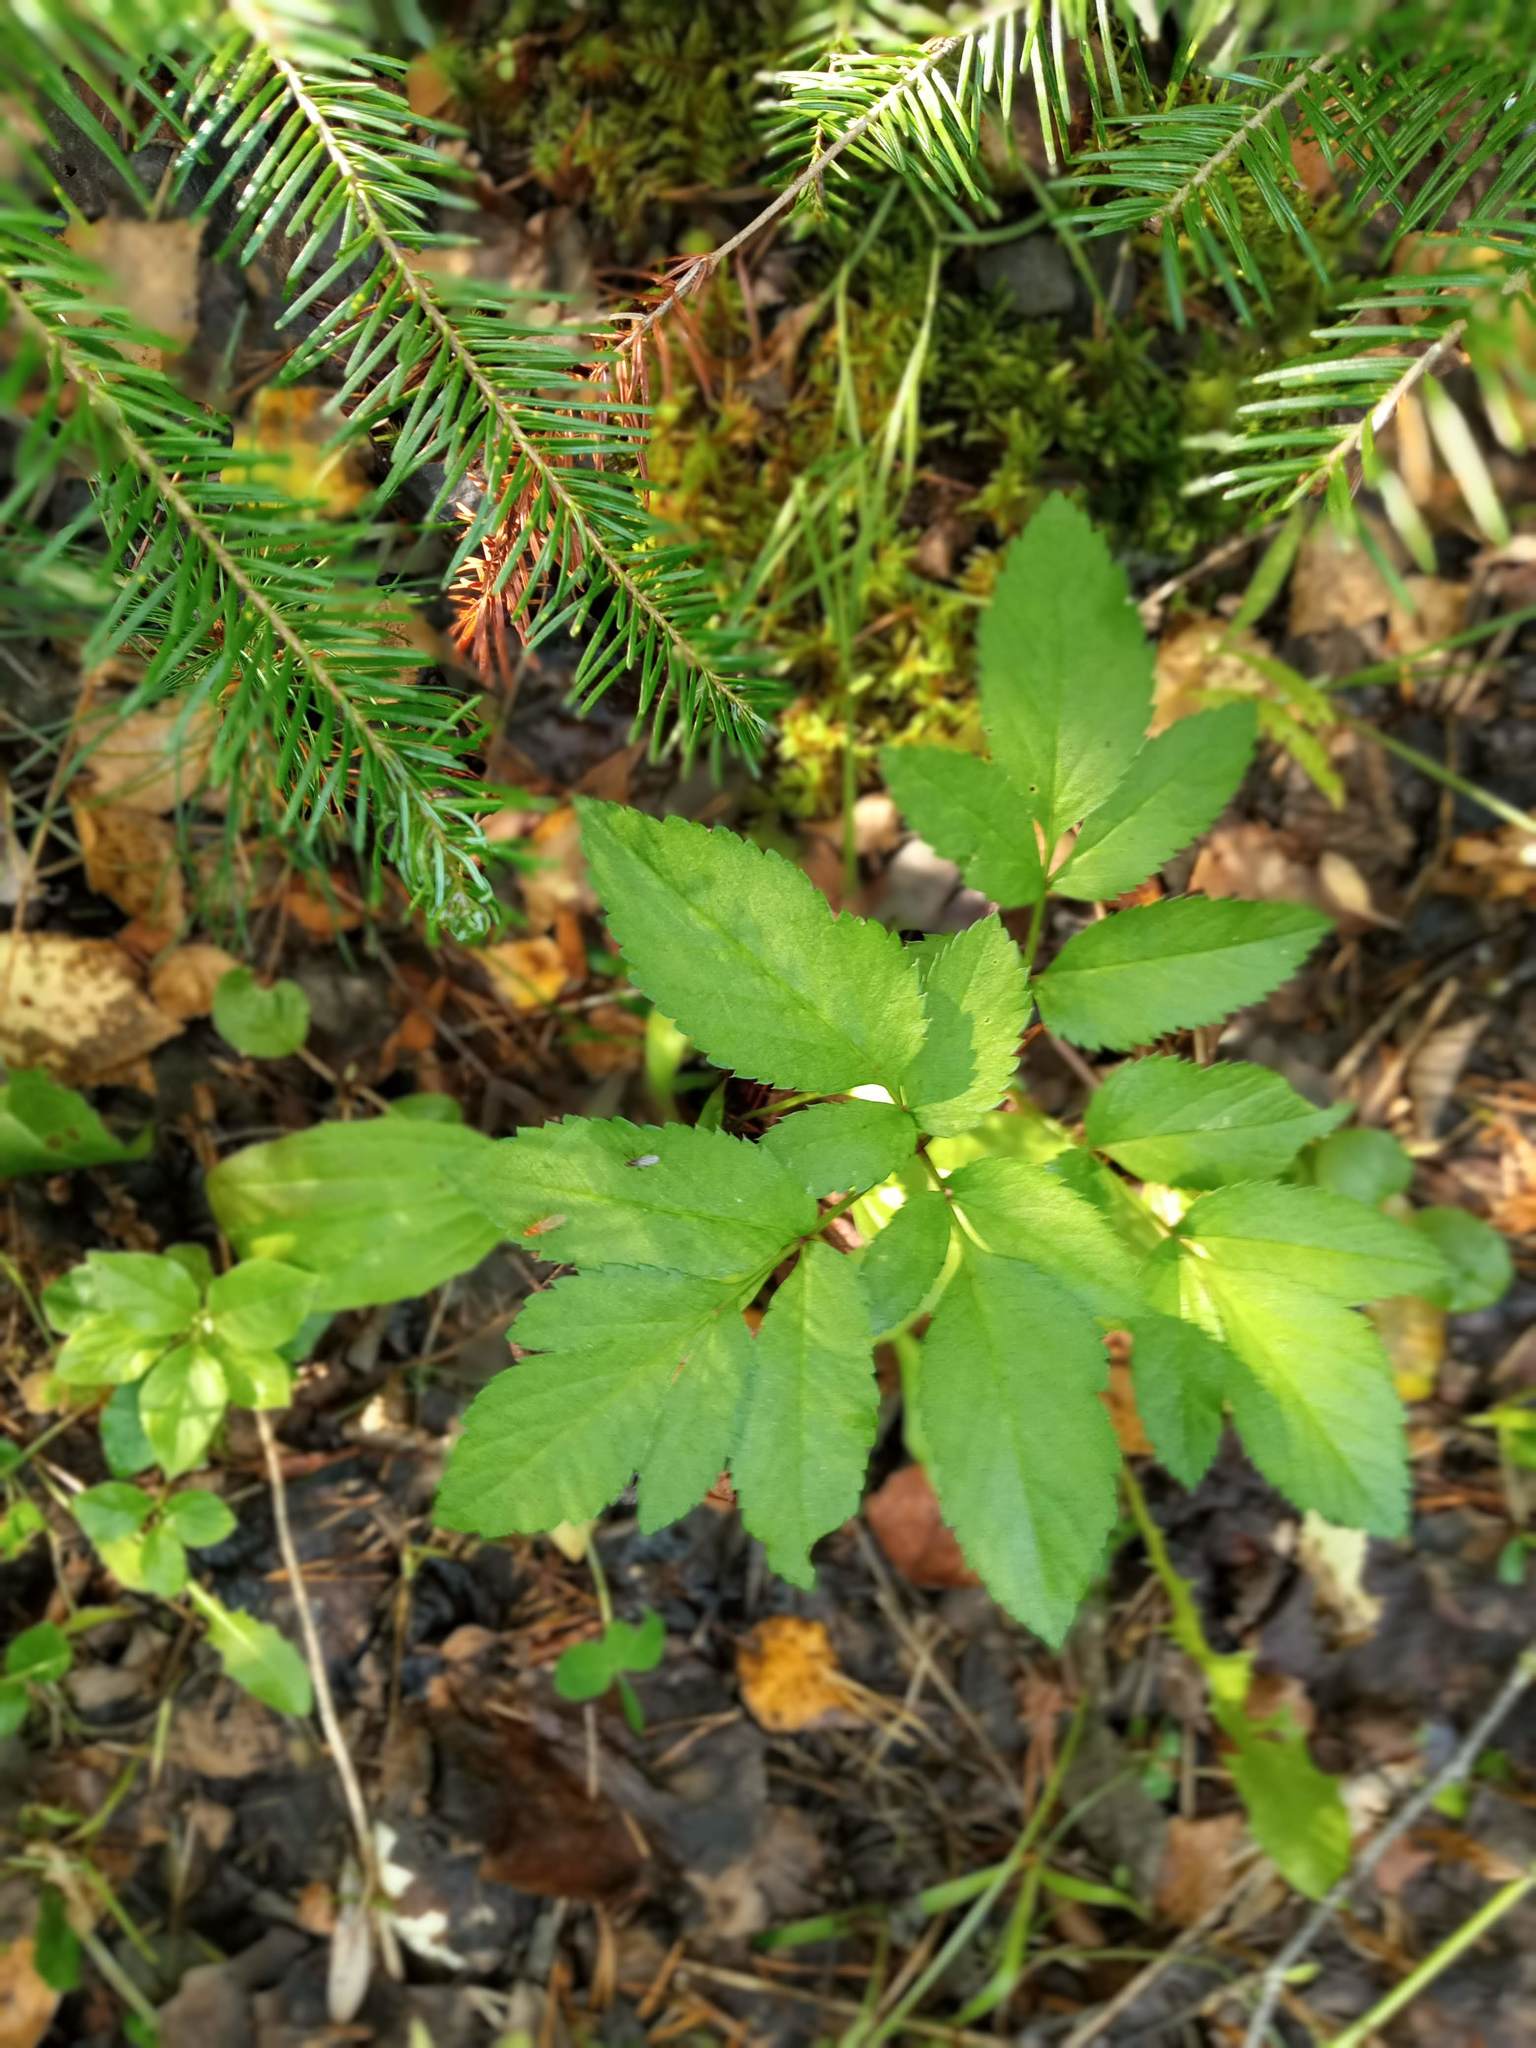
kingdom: Plantae
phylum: Tracheophyta
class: Magnoliopsida
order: Apiales
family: Apiaceae
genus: Angelica
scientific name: Angelica sylvestris
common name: Wild angelica
